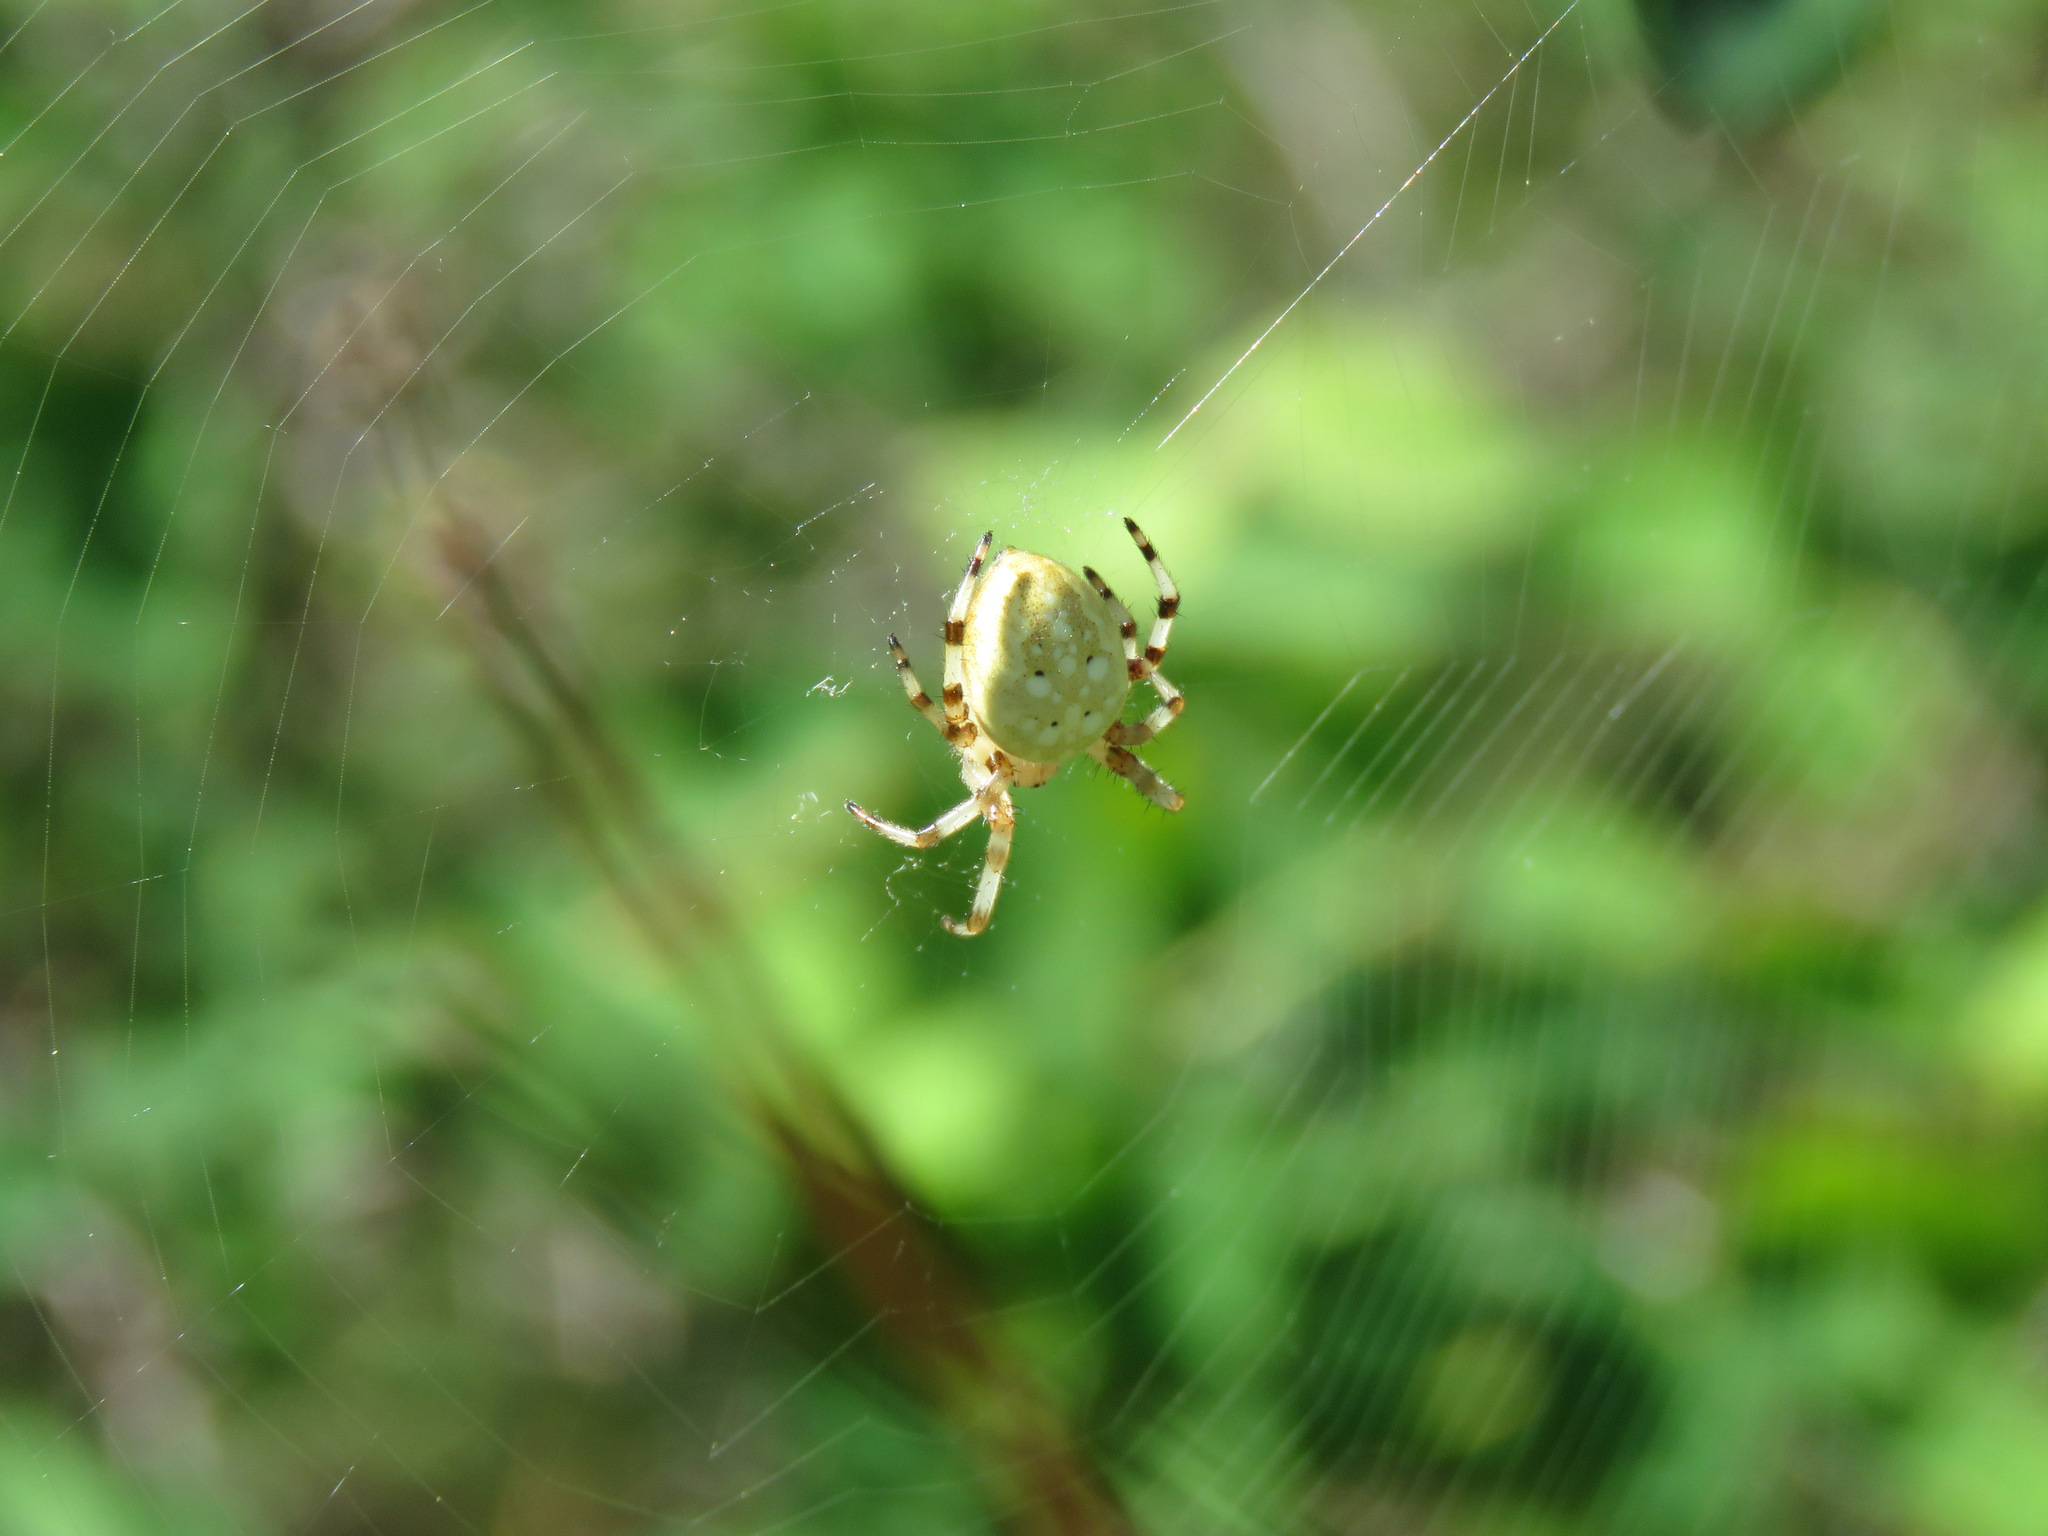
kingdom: Animalia
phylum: Arthropoda
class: Arachnida
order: Araneae
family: Araneidae
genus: Araneus
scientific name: Araneus trifolium
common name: Shamrock orbweaver
